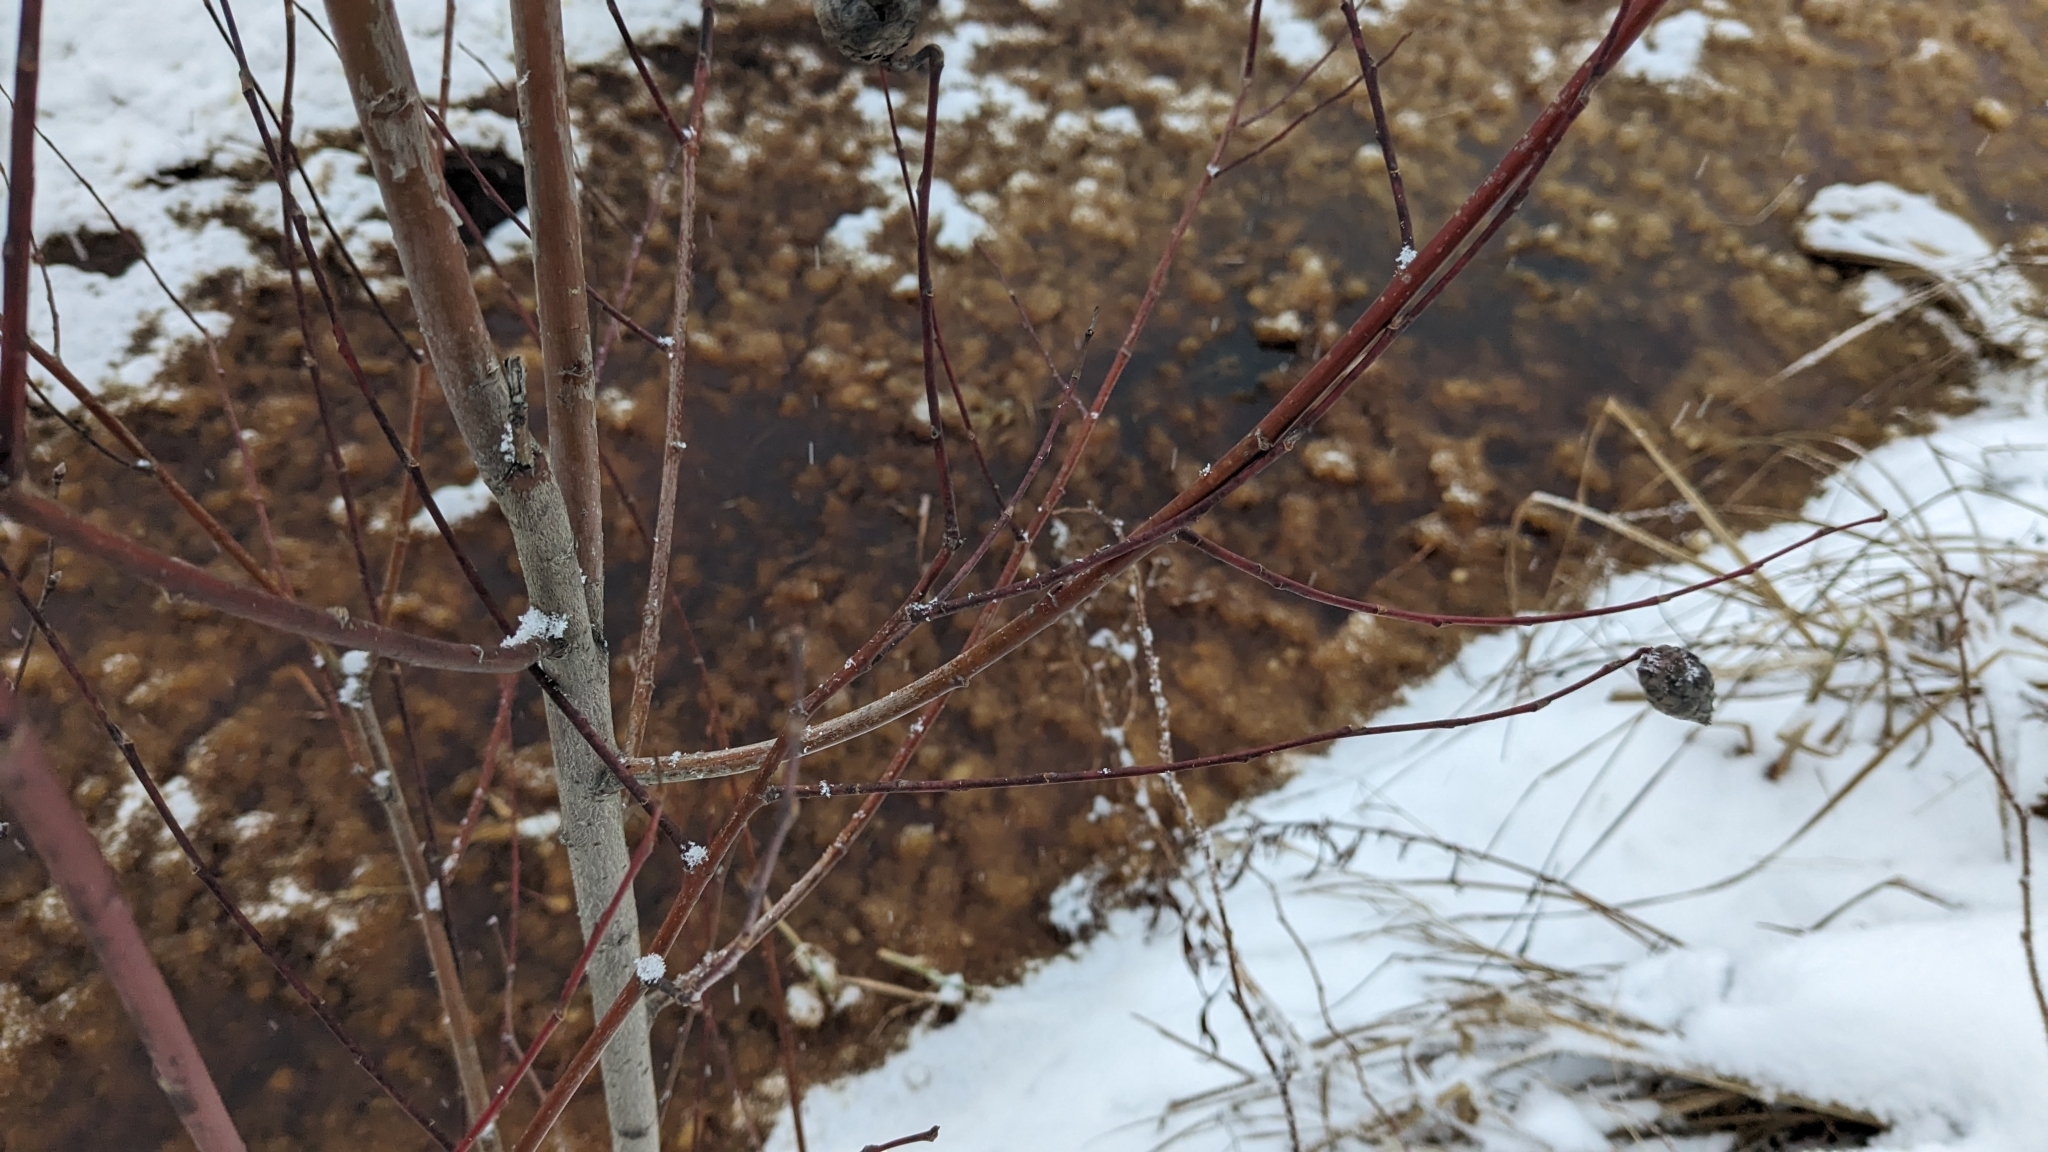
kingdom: Animalia
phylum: Arthropoda
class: Insecta
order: Diptera
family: Cecidomyiidae
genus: Rabdophaga
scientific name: Rabdophaga salicisgnaphaloides
